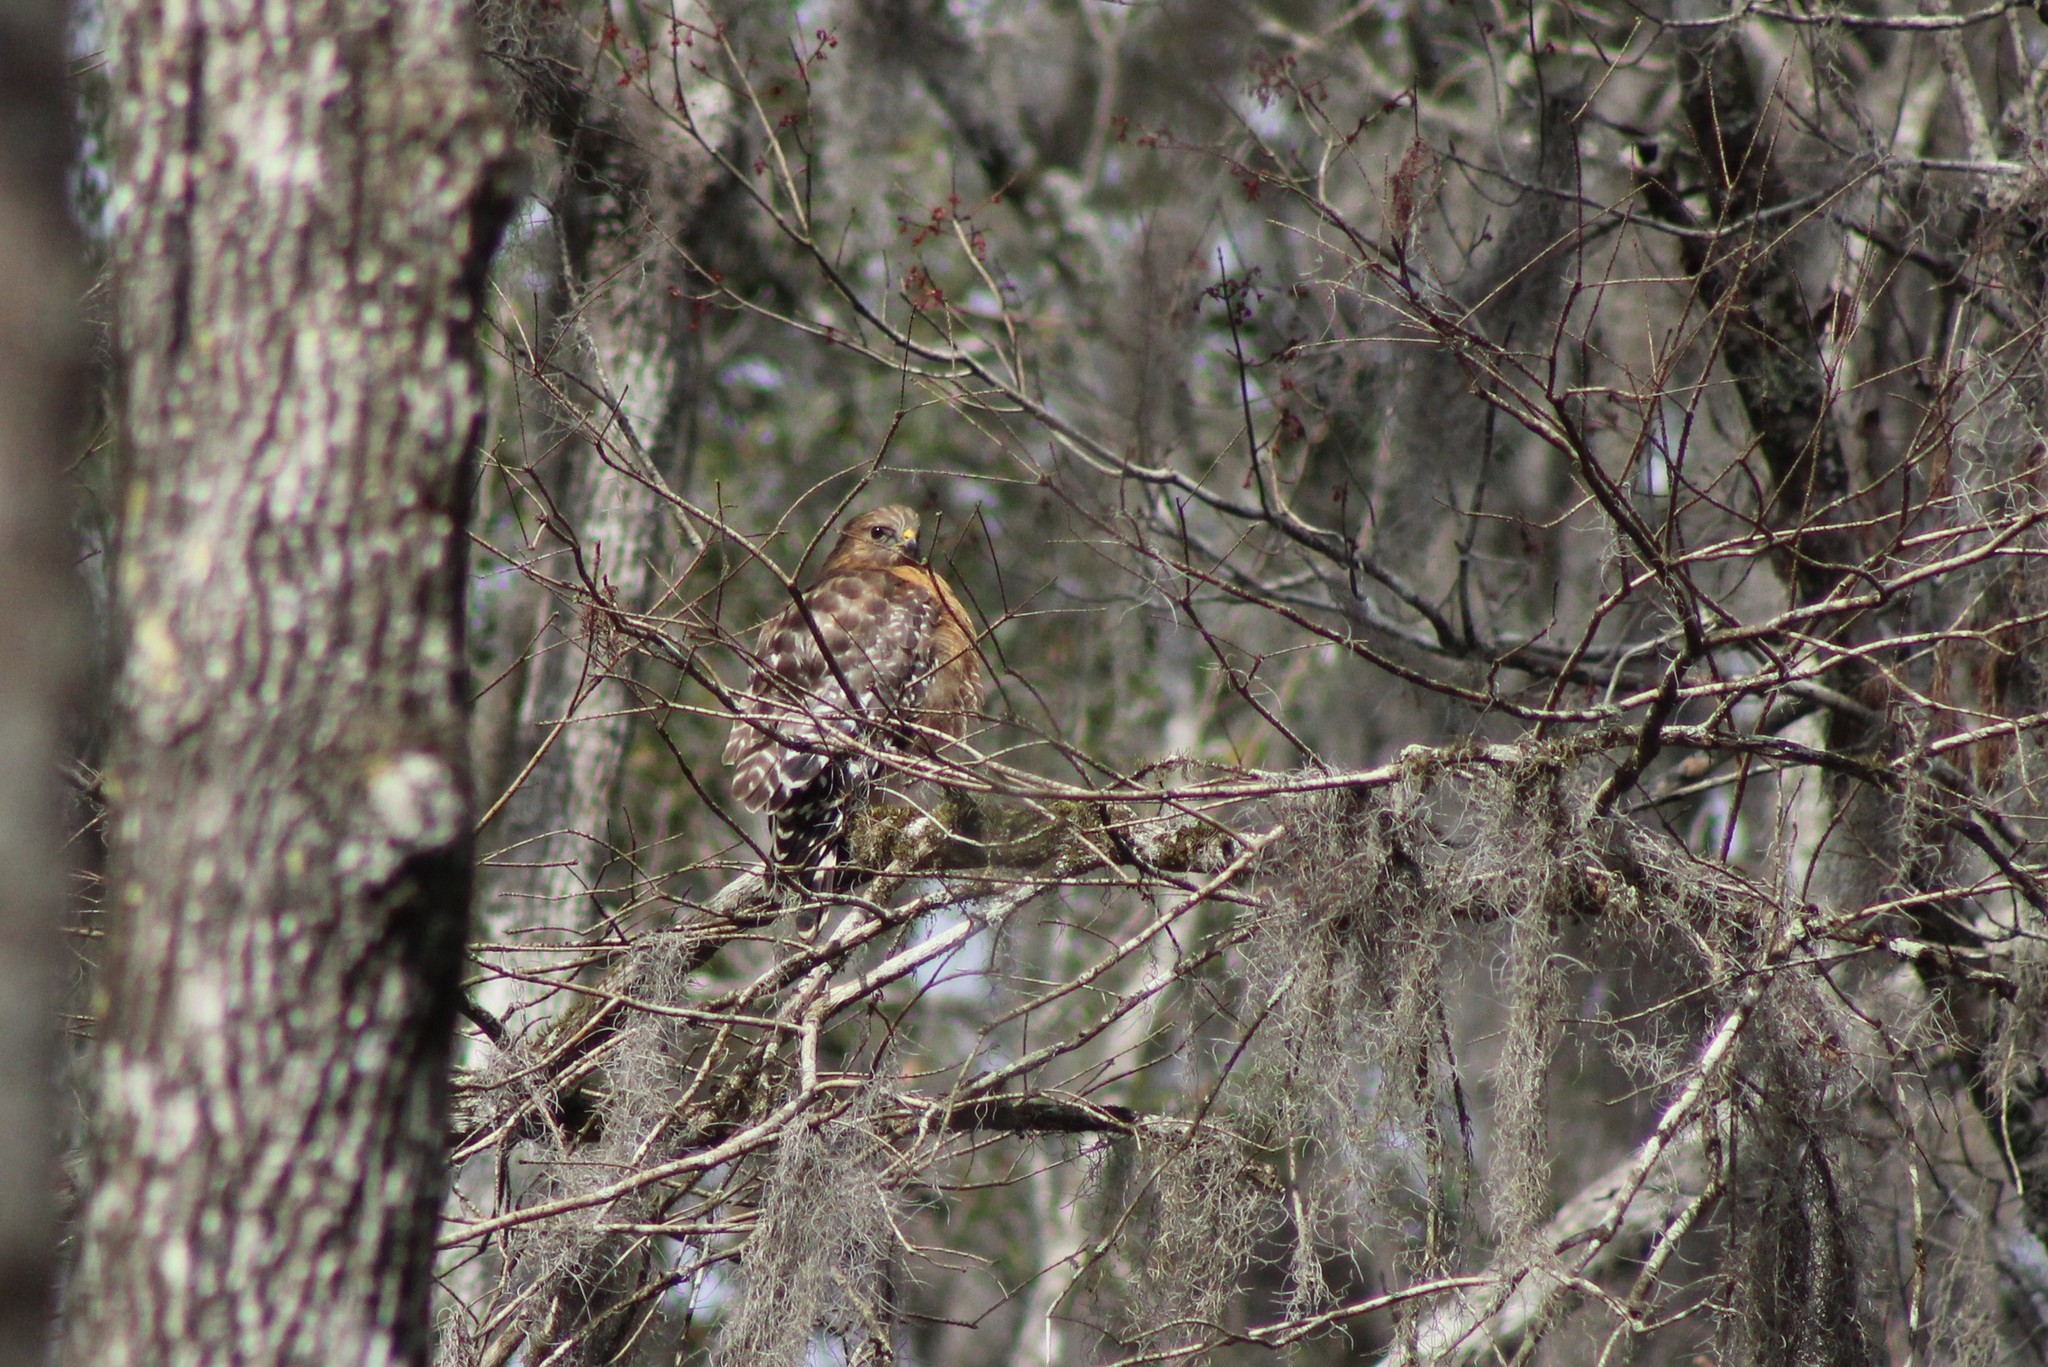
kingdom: Animalia
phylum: Chordata
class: Aves
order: Accipitriformes
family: Accipitridae
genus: Buteo
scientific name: Buteo lineatus
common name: Red-shouldered hawk
